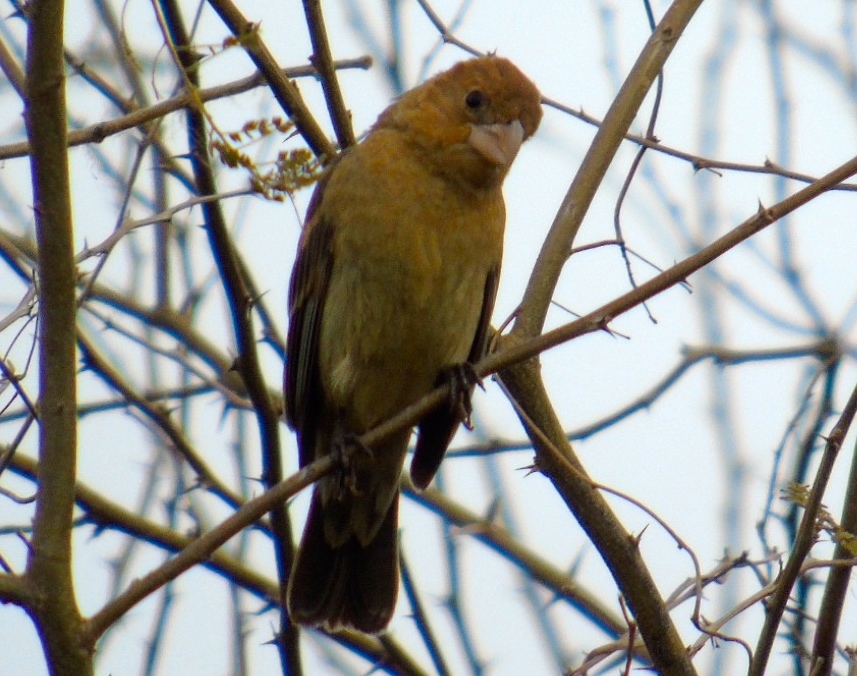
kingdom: Animalia
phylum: Chordata
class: Aves
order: Passeriformes
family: Cardinalidae
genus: Passerina
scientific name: Passerina caerulea
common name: Blue grosbeak
